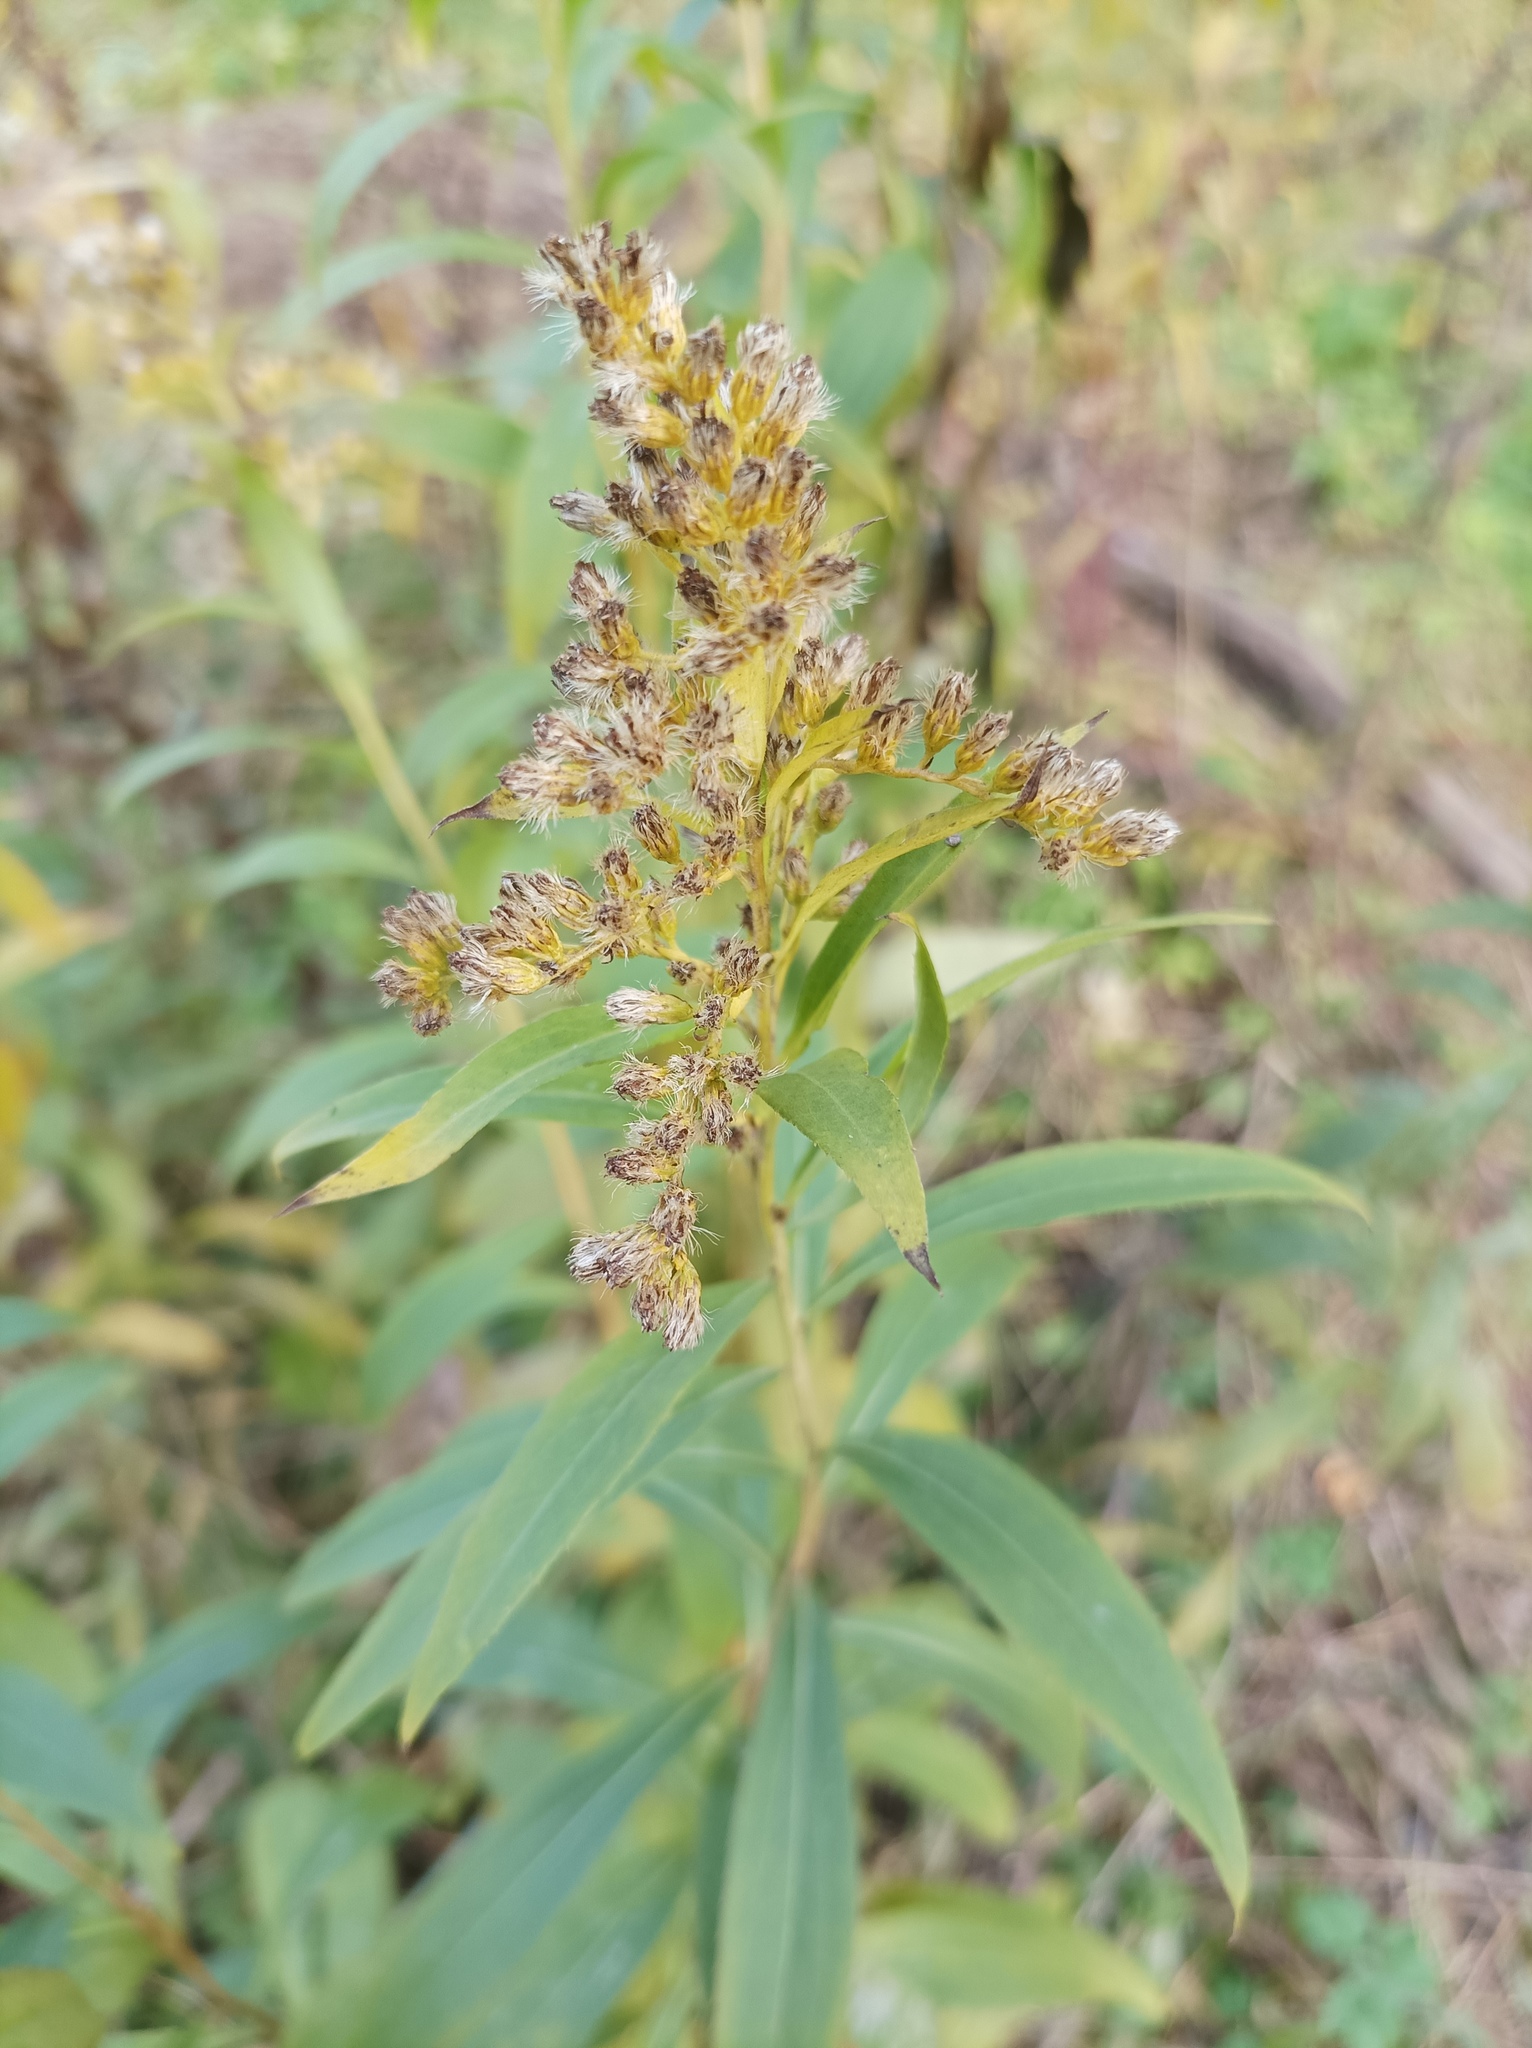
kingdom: Plantae
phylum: Tracheophyta
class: Magnoliopsida
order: Asterales
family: Asteraceae
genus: Solidago
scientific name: Solidago gigantea
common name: Giant goldenrod
